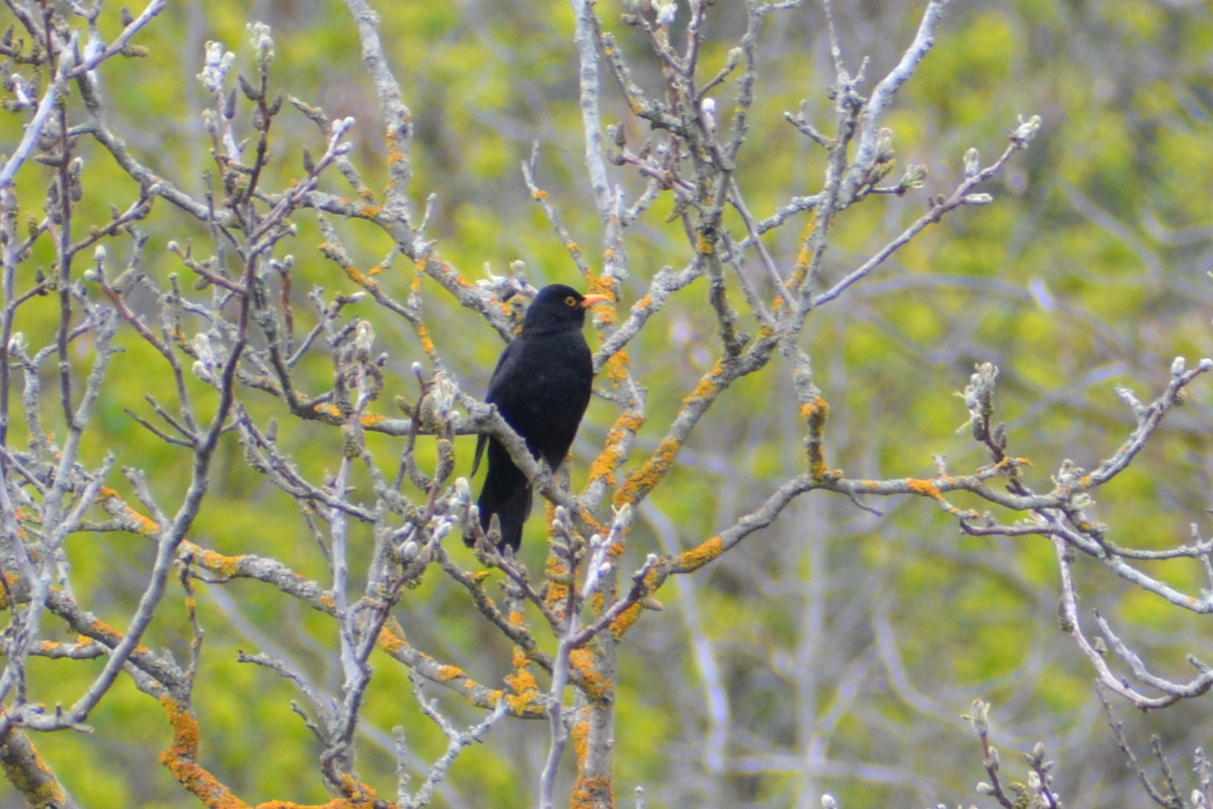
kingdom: Animalia
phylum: Chordata
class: Aves
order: Passeriformes
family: Turdidae
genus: Turdus
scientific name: Turdus merula
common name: Common blackbird
